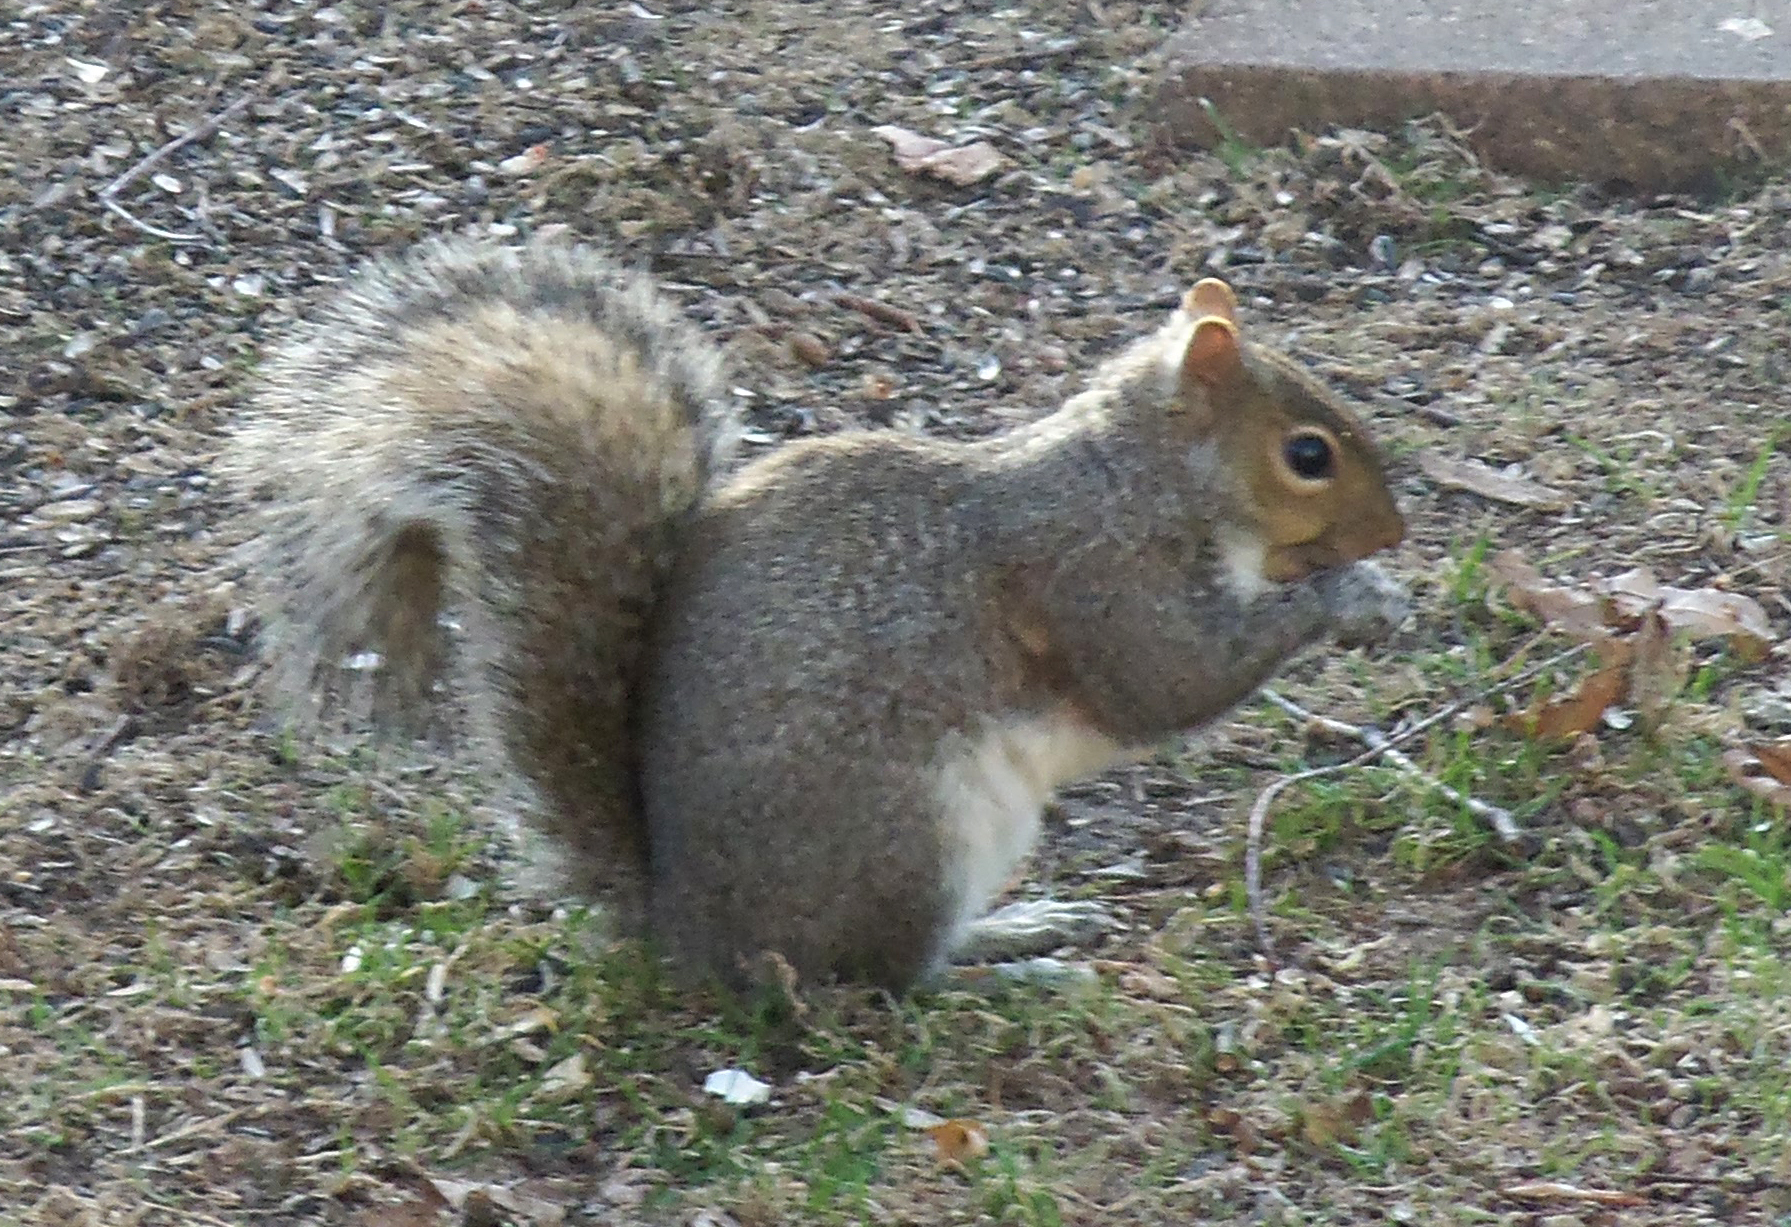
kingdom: Animalia
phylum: Chordata
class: Mammalia
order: Rodentia
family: Sciuridae
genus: Sciurus
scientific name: Sciurus carolinensis
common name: Eastern gray squirrel
